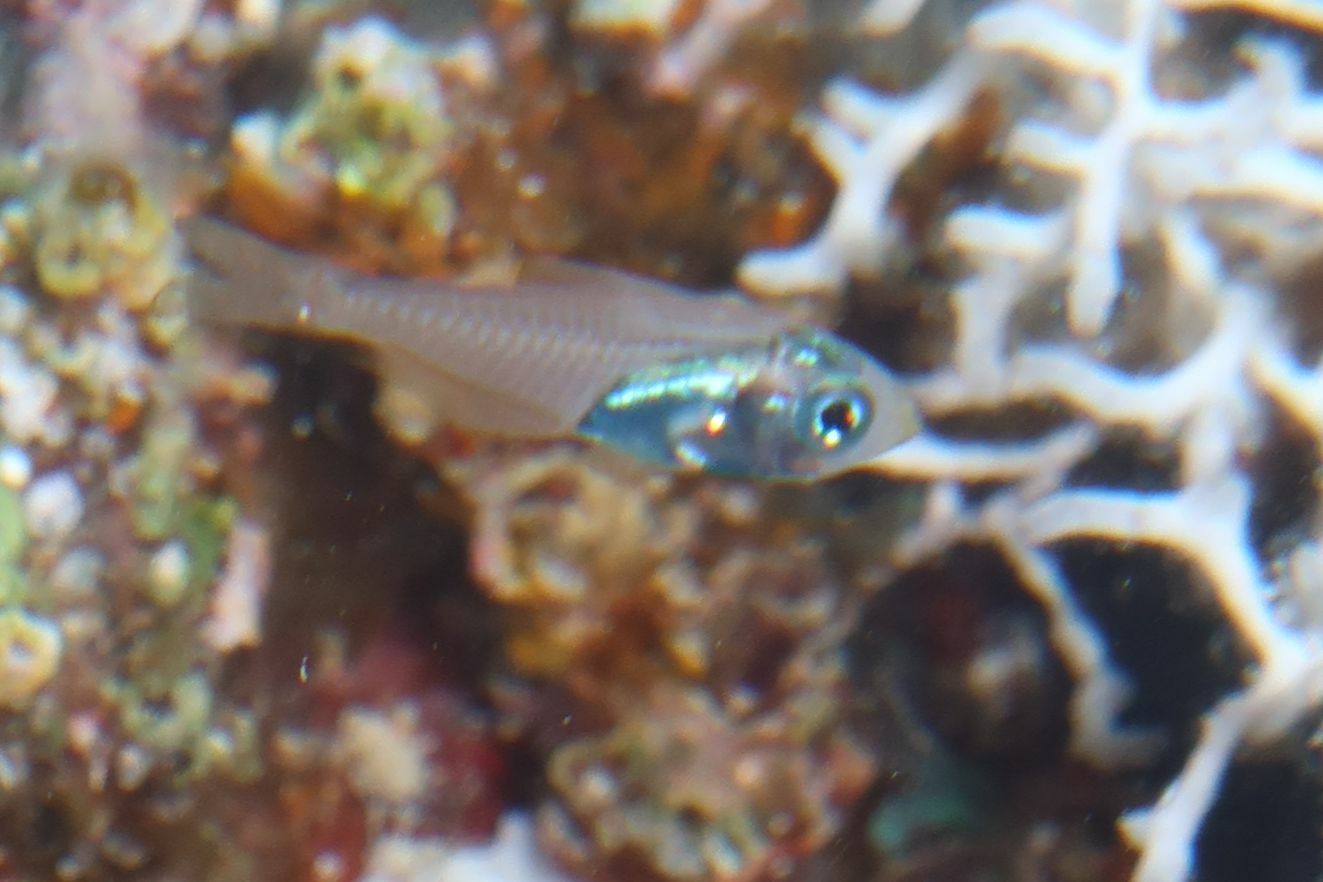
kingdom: Animalia
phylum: Chordata
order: Perciformes
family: Pempheridae
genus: Parapriacanthus
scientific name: Parapriacanthus guentheri
